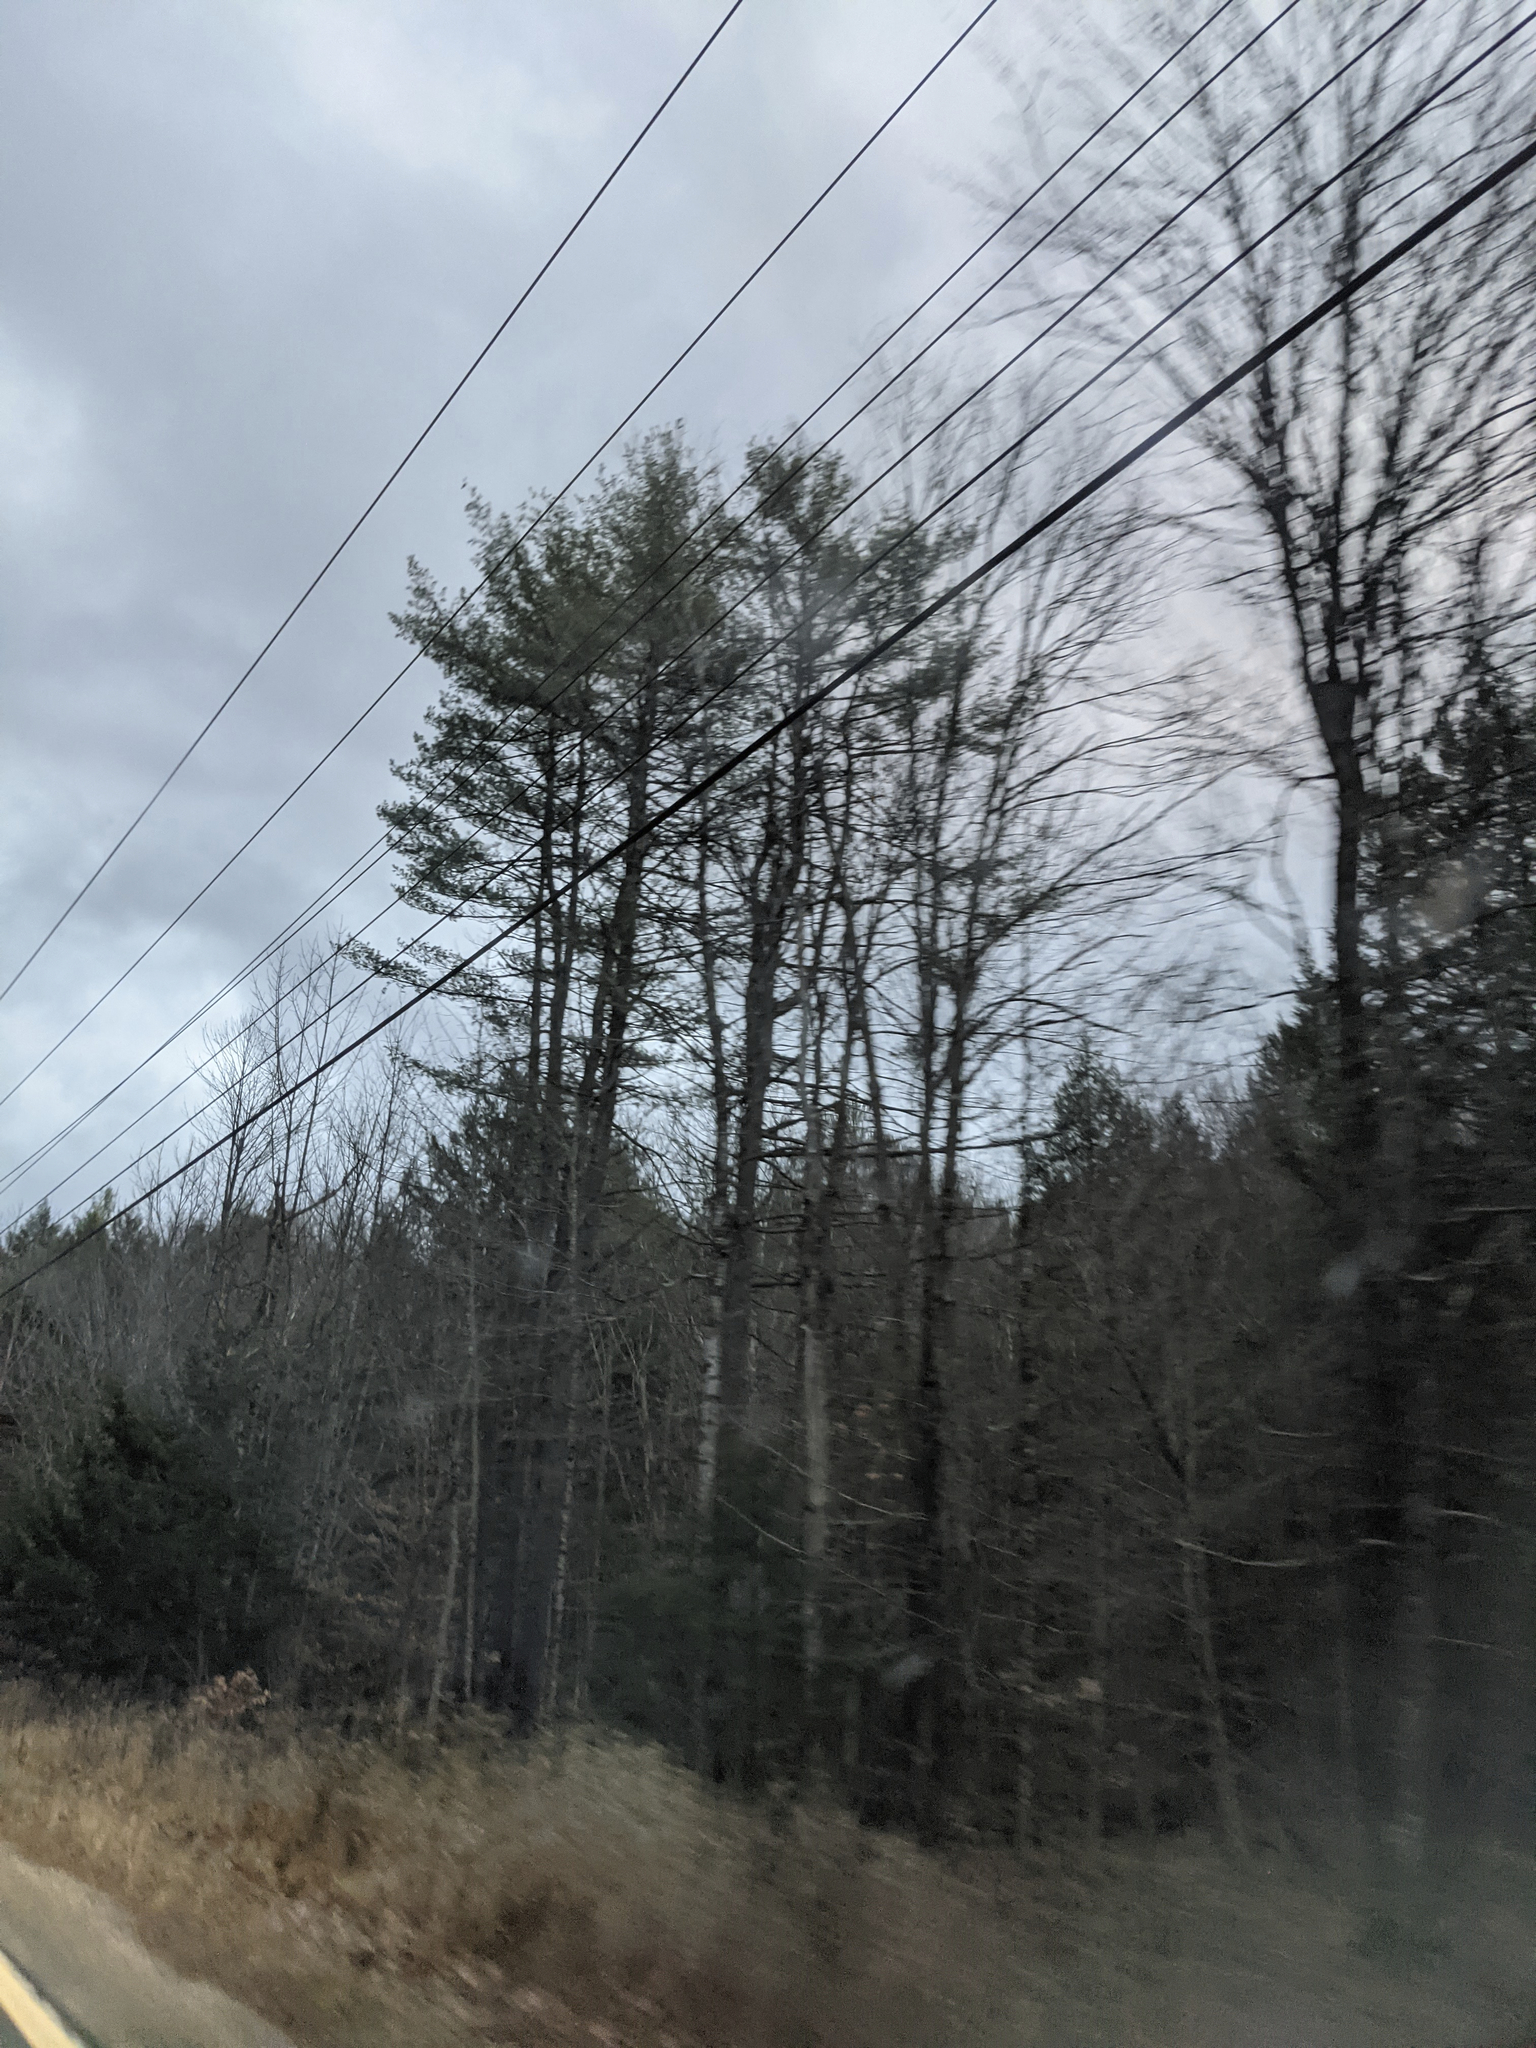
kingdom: Plantae
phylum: Tracheophyta
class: Pinopsida
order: Pinales
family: Pinaceae
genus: Pinus
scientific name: Pinus strobus
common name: Weymouth pine
